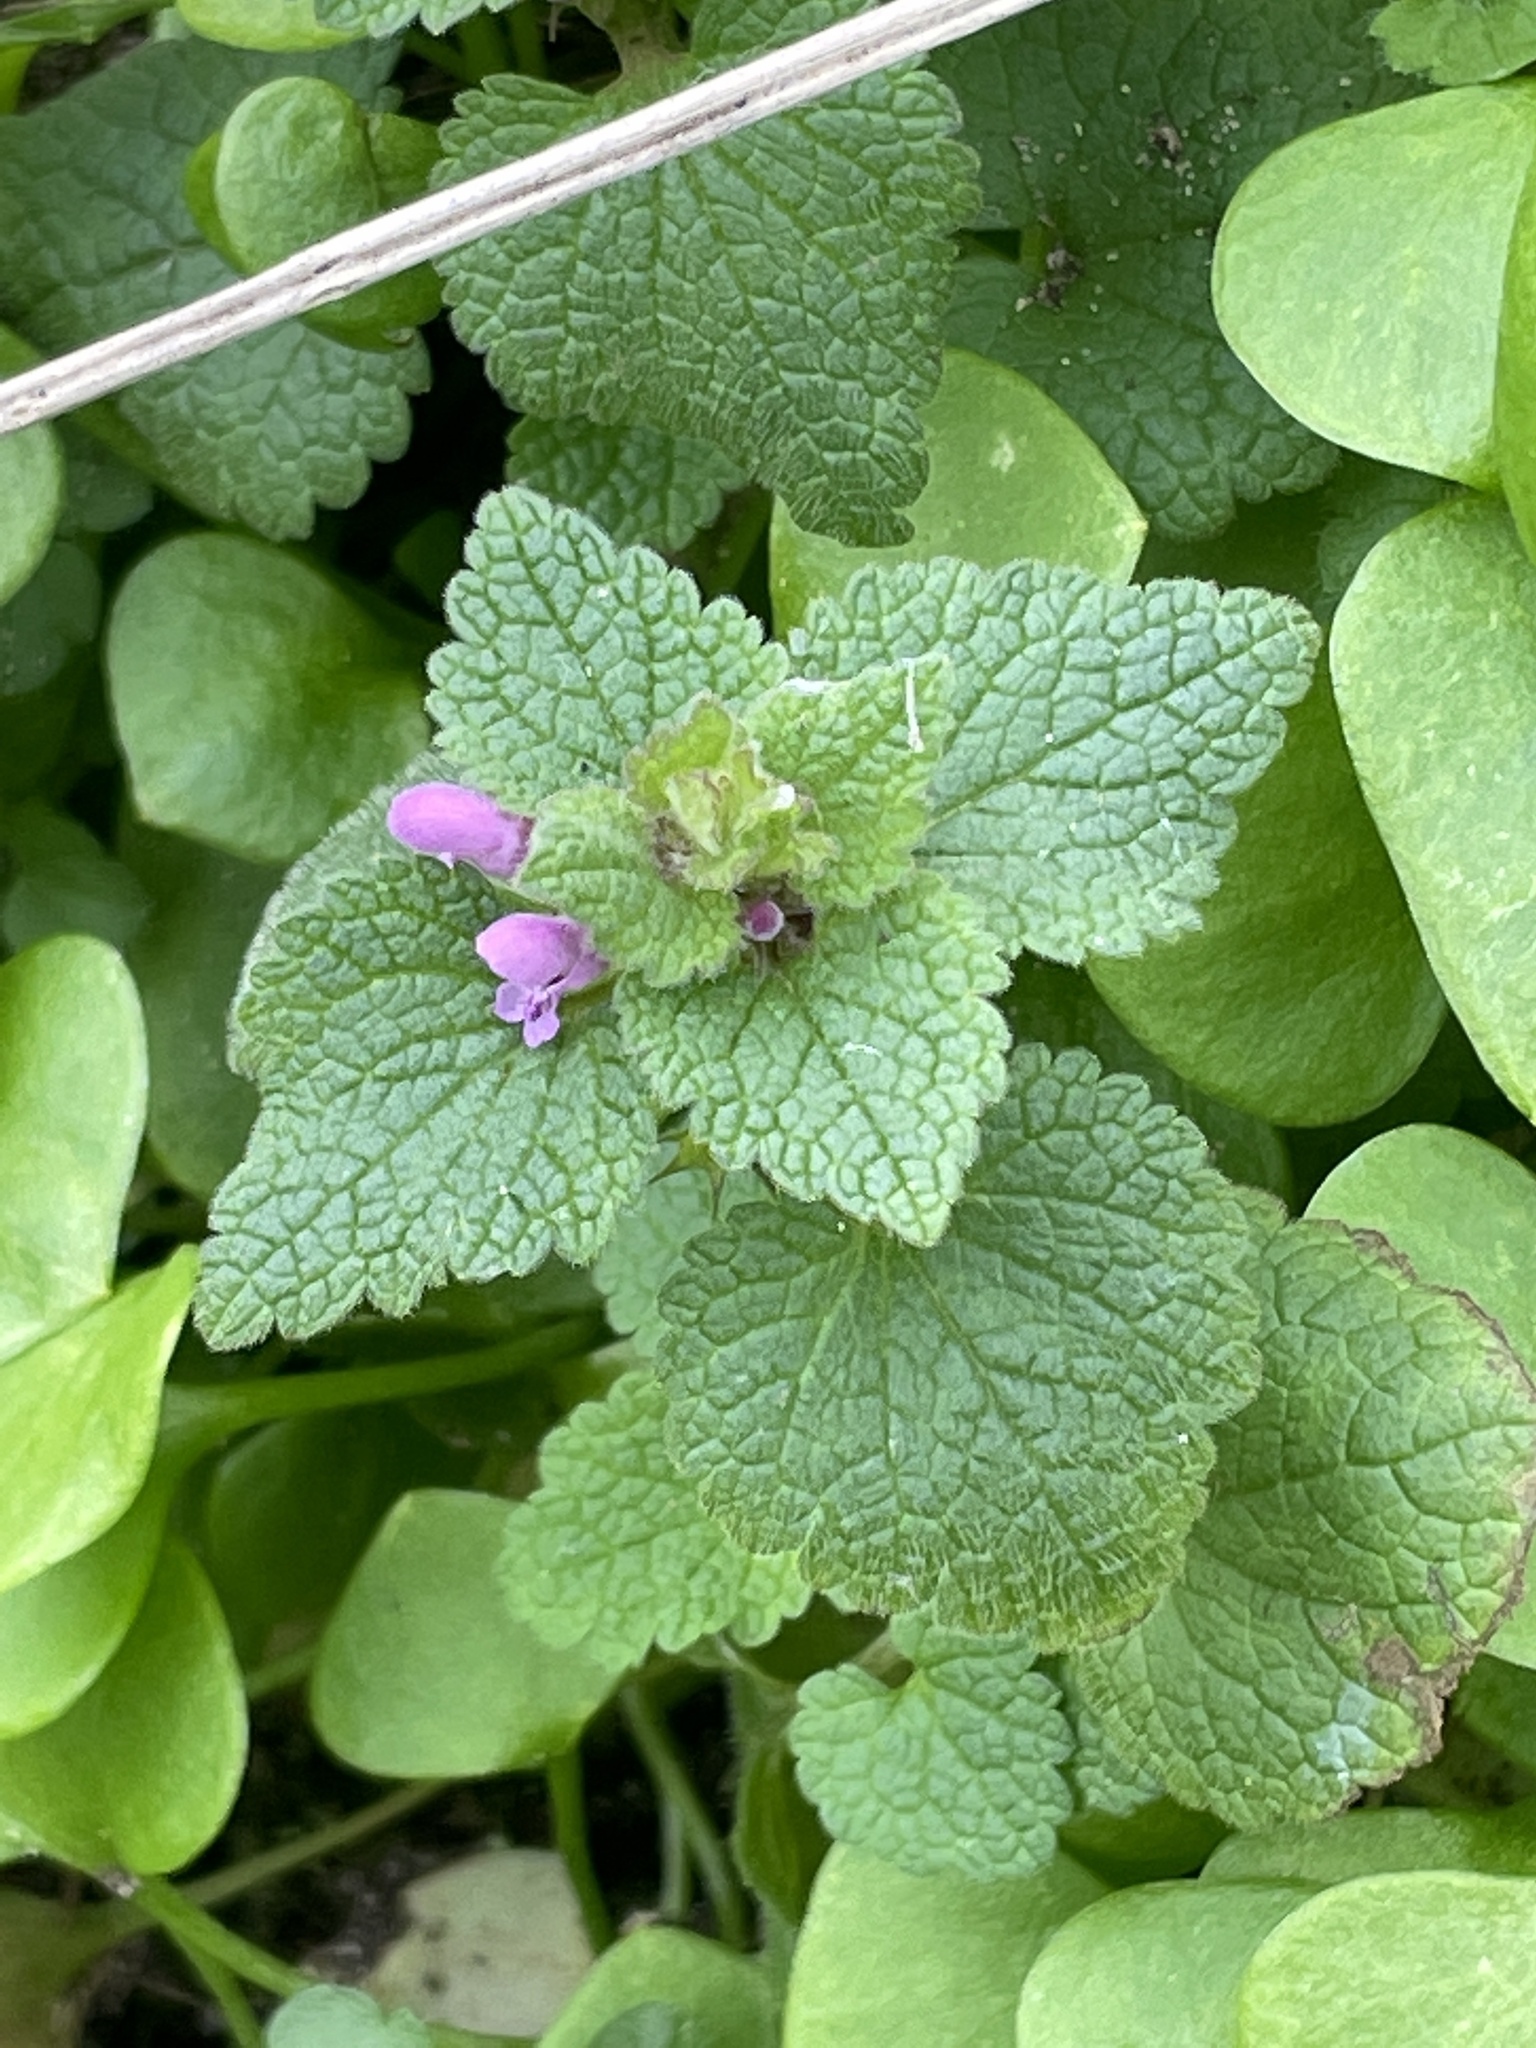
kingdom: Plantae
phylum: Tracheophyta
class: Magnoliopsida
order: Lamiales
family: Lamiaceae
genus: Lamium
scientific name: Lamium purpureum
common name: Red dead-nettle
